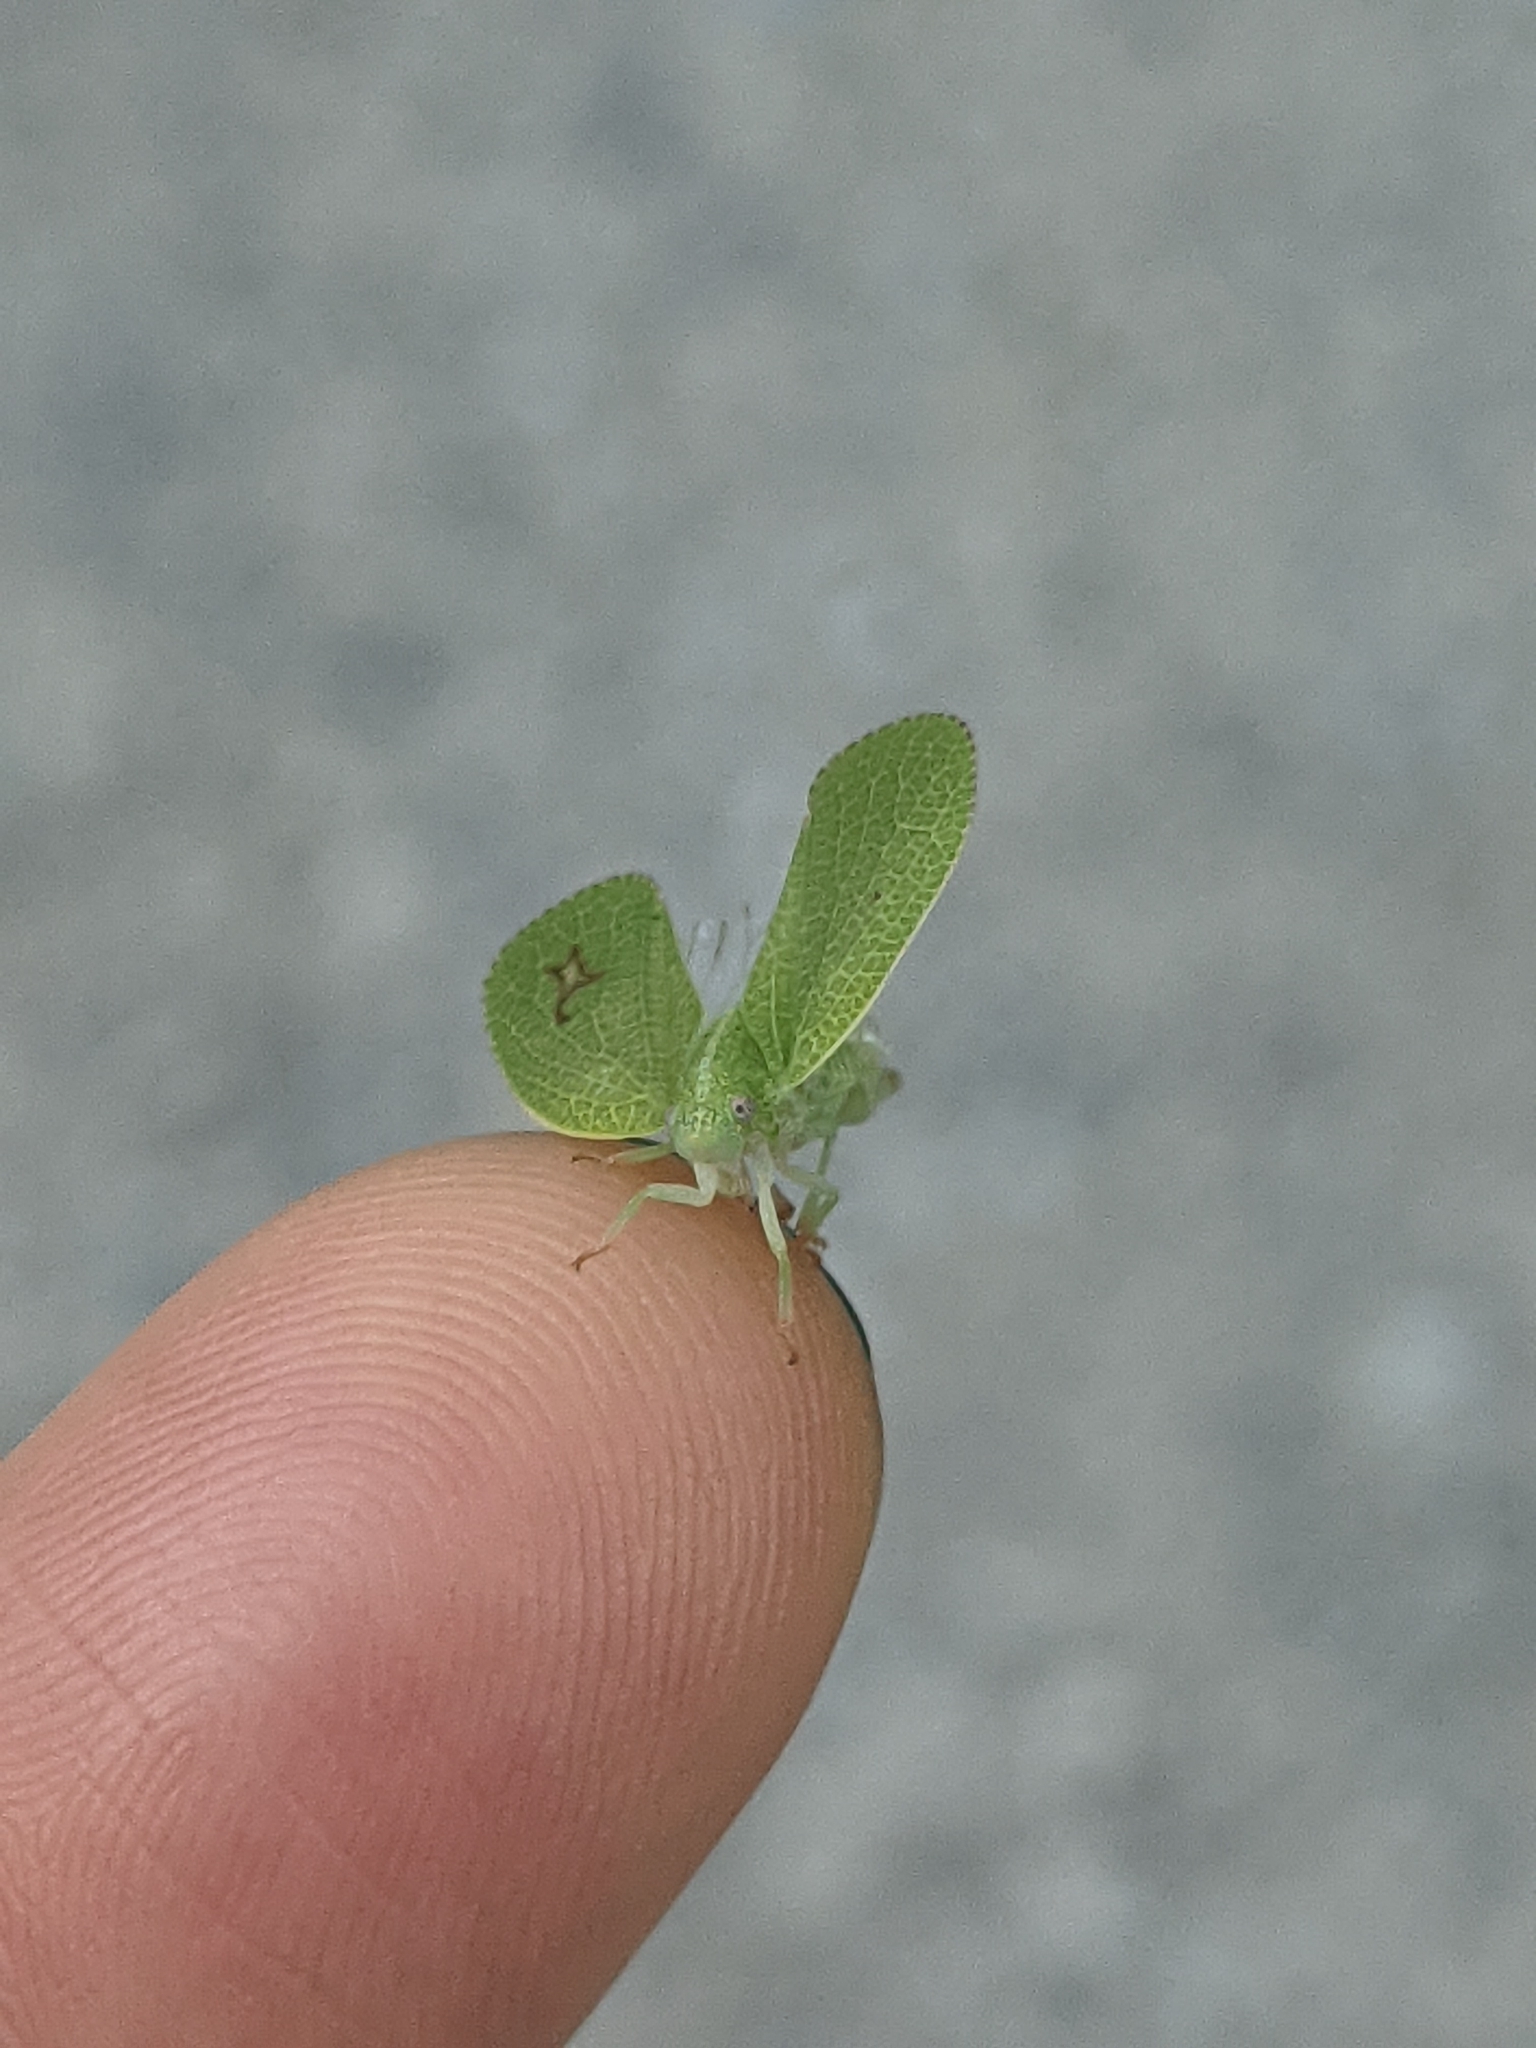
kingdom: Animalia
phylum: Arthropoda
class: Insecta
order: Hemiptera
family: Acanaloniidae
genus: Acanalonia
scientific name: Acanalonia conica
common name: Green cone-headed planthopper
